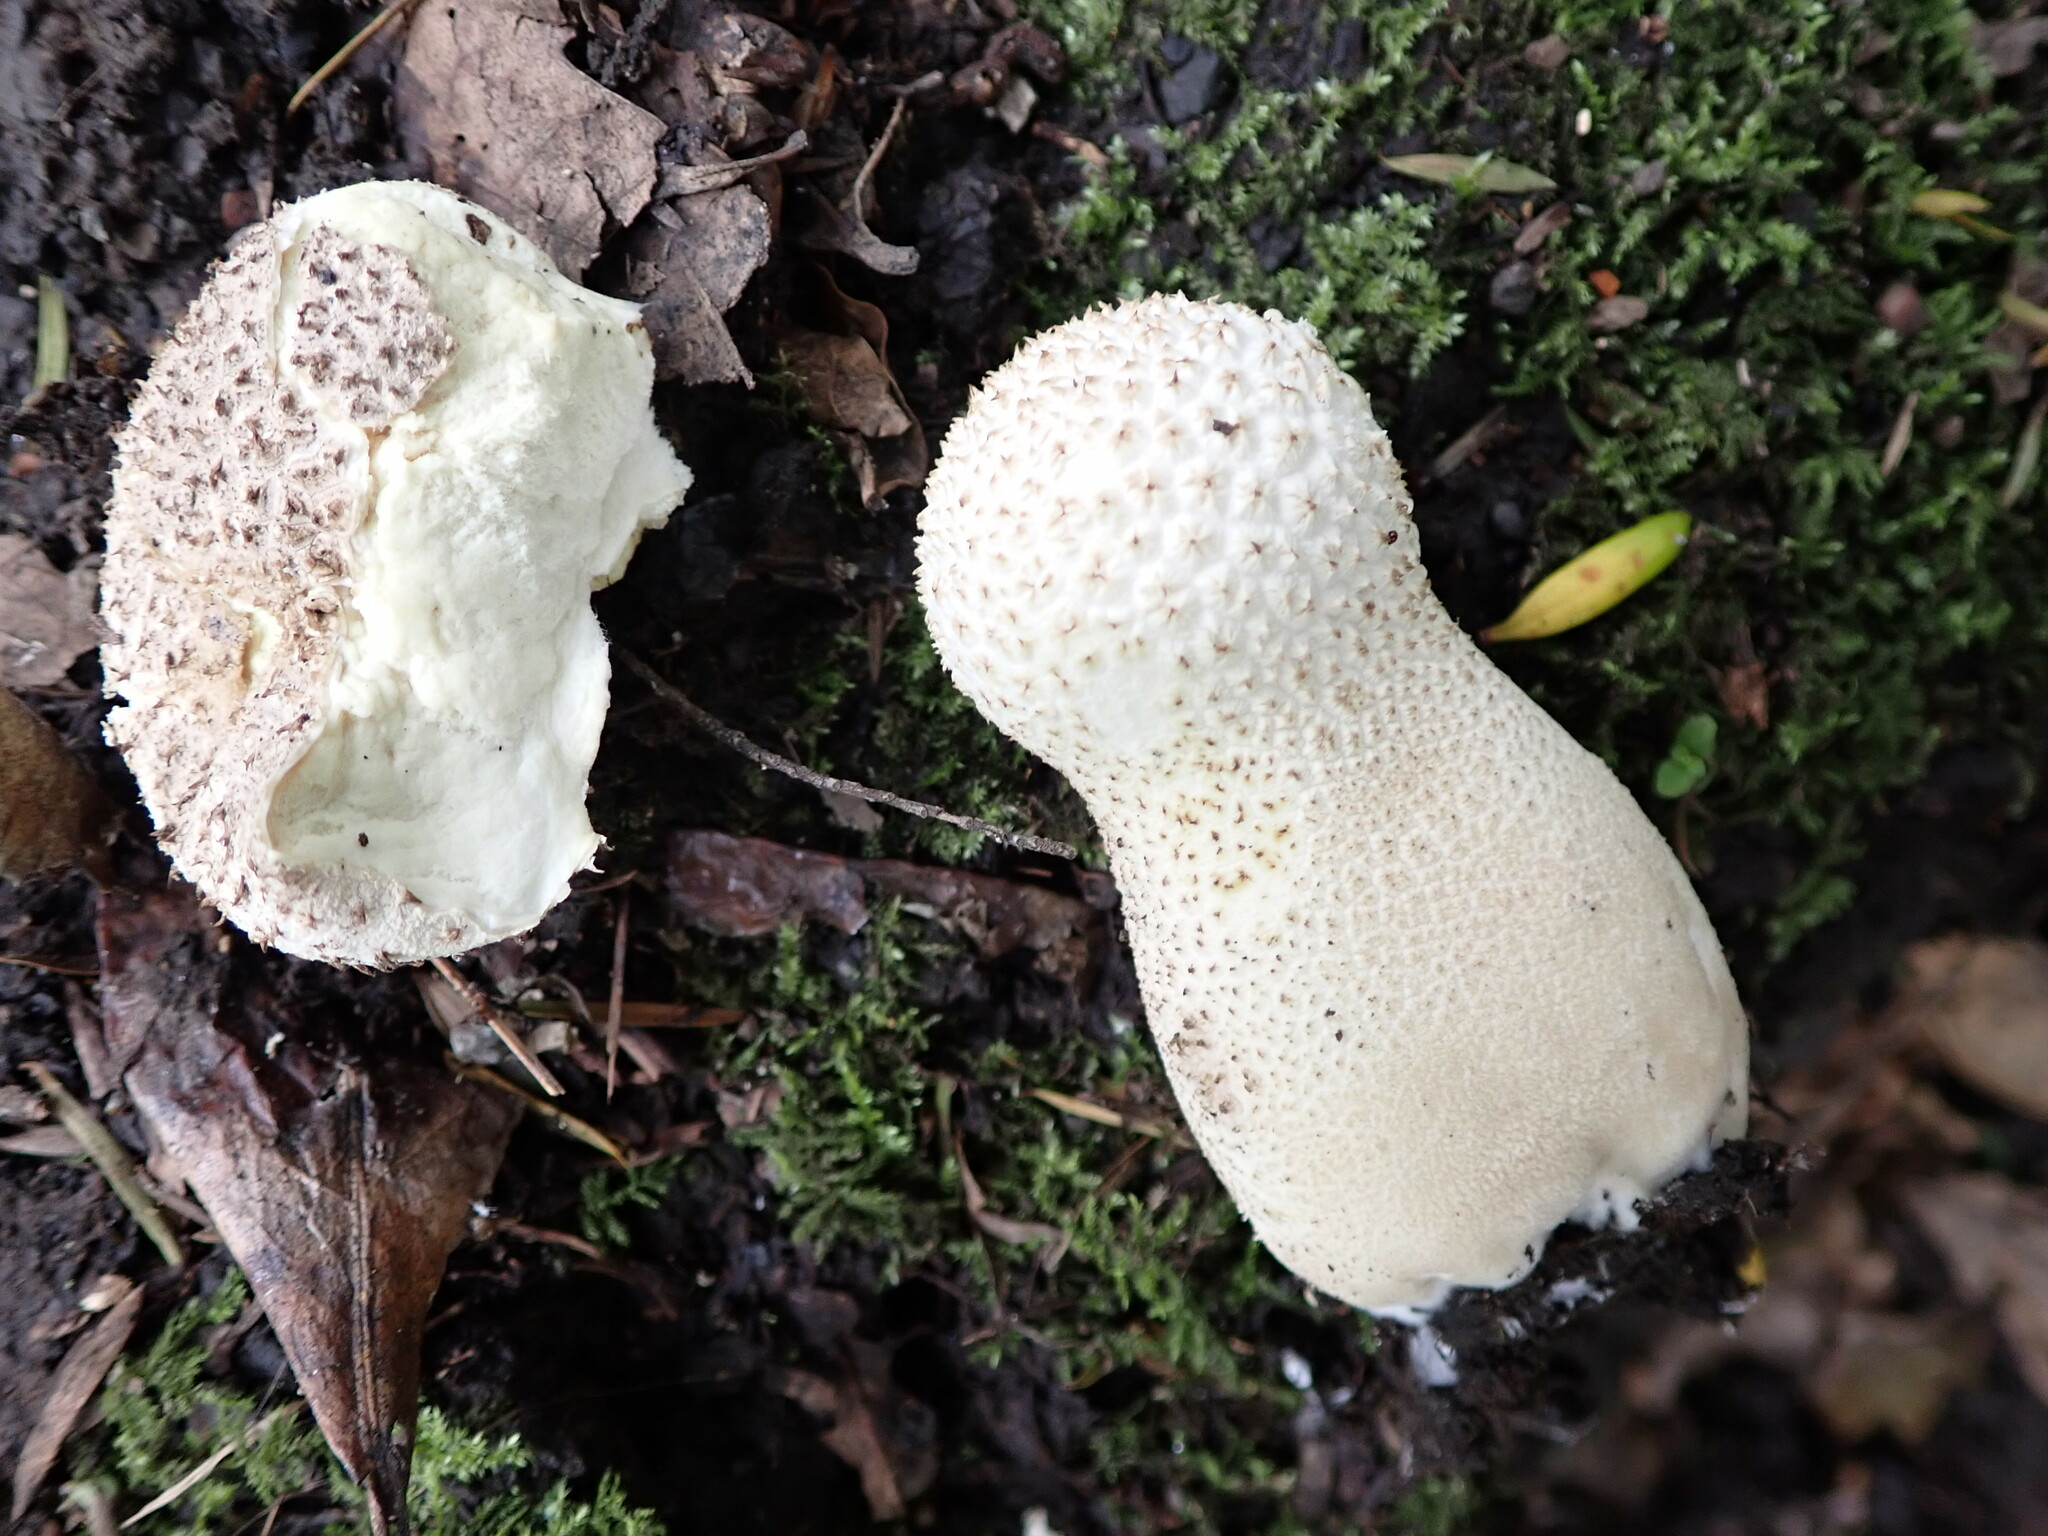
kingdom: Fungi
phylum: Basidiomycota
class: Agaricomycetes
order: Agaricales
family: Lycoperdaceae
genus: Lycoperdon
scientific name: Lycoperdon perlatum
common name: Common puffball
